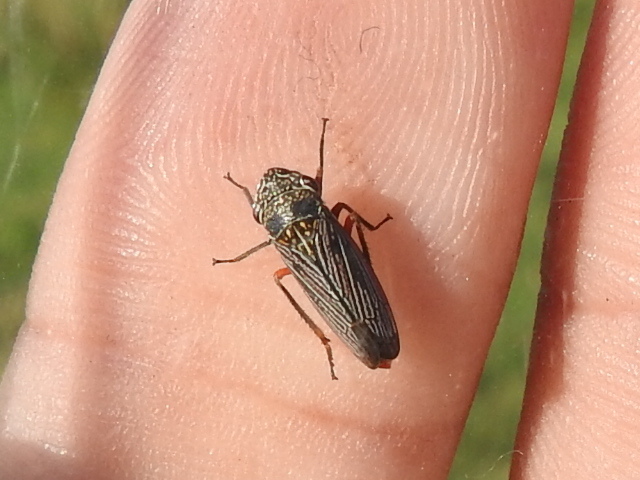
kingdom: Animalia
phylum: Arthropoda
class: Insecta
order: Hemiptera
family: Cicadellidae
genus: Cuerna
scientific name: Cuerna costalis
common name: Lateral-lined sharpshooter
